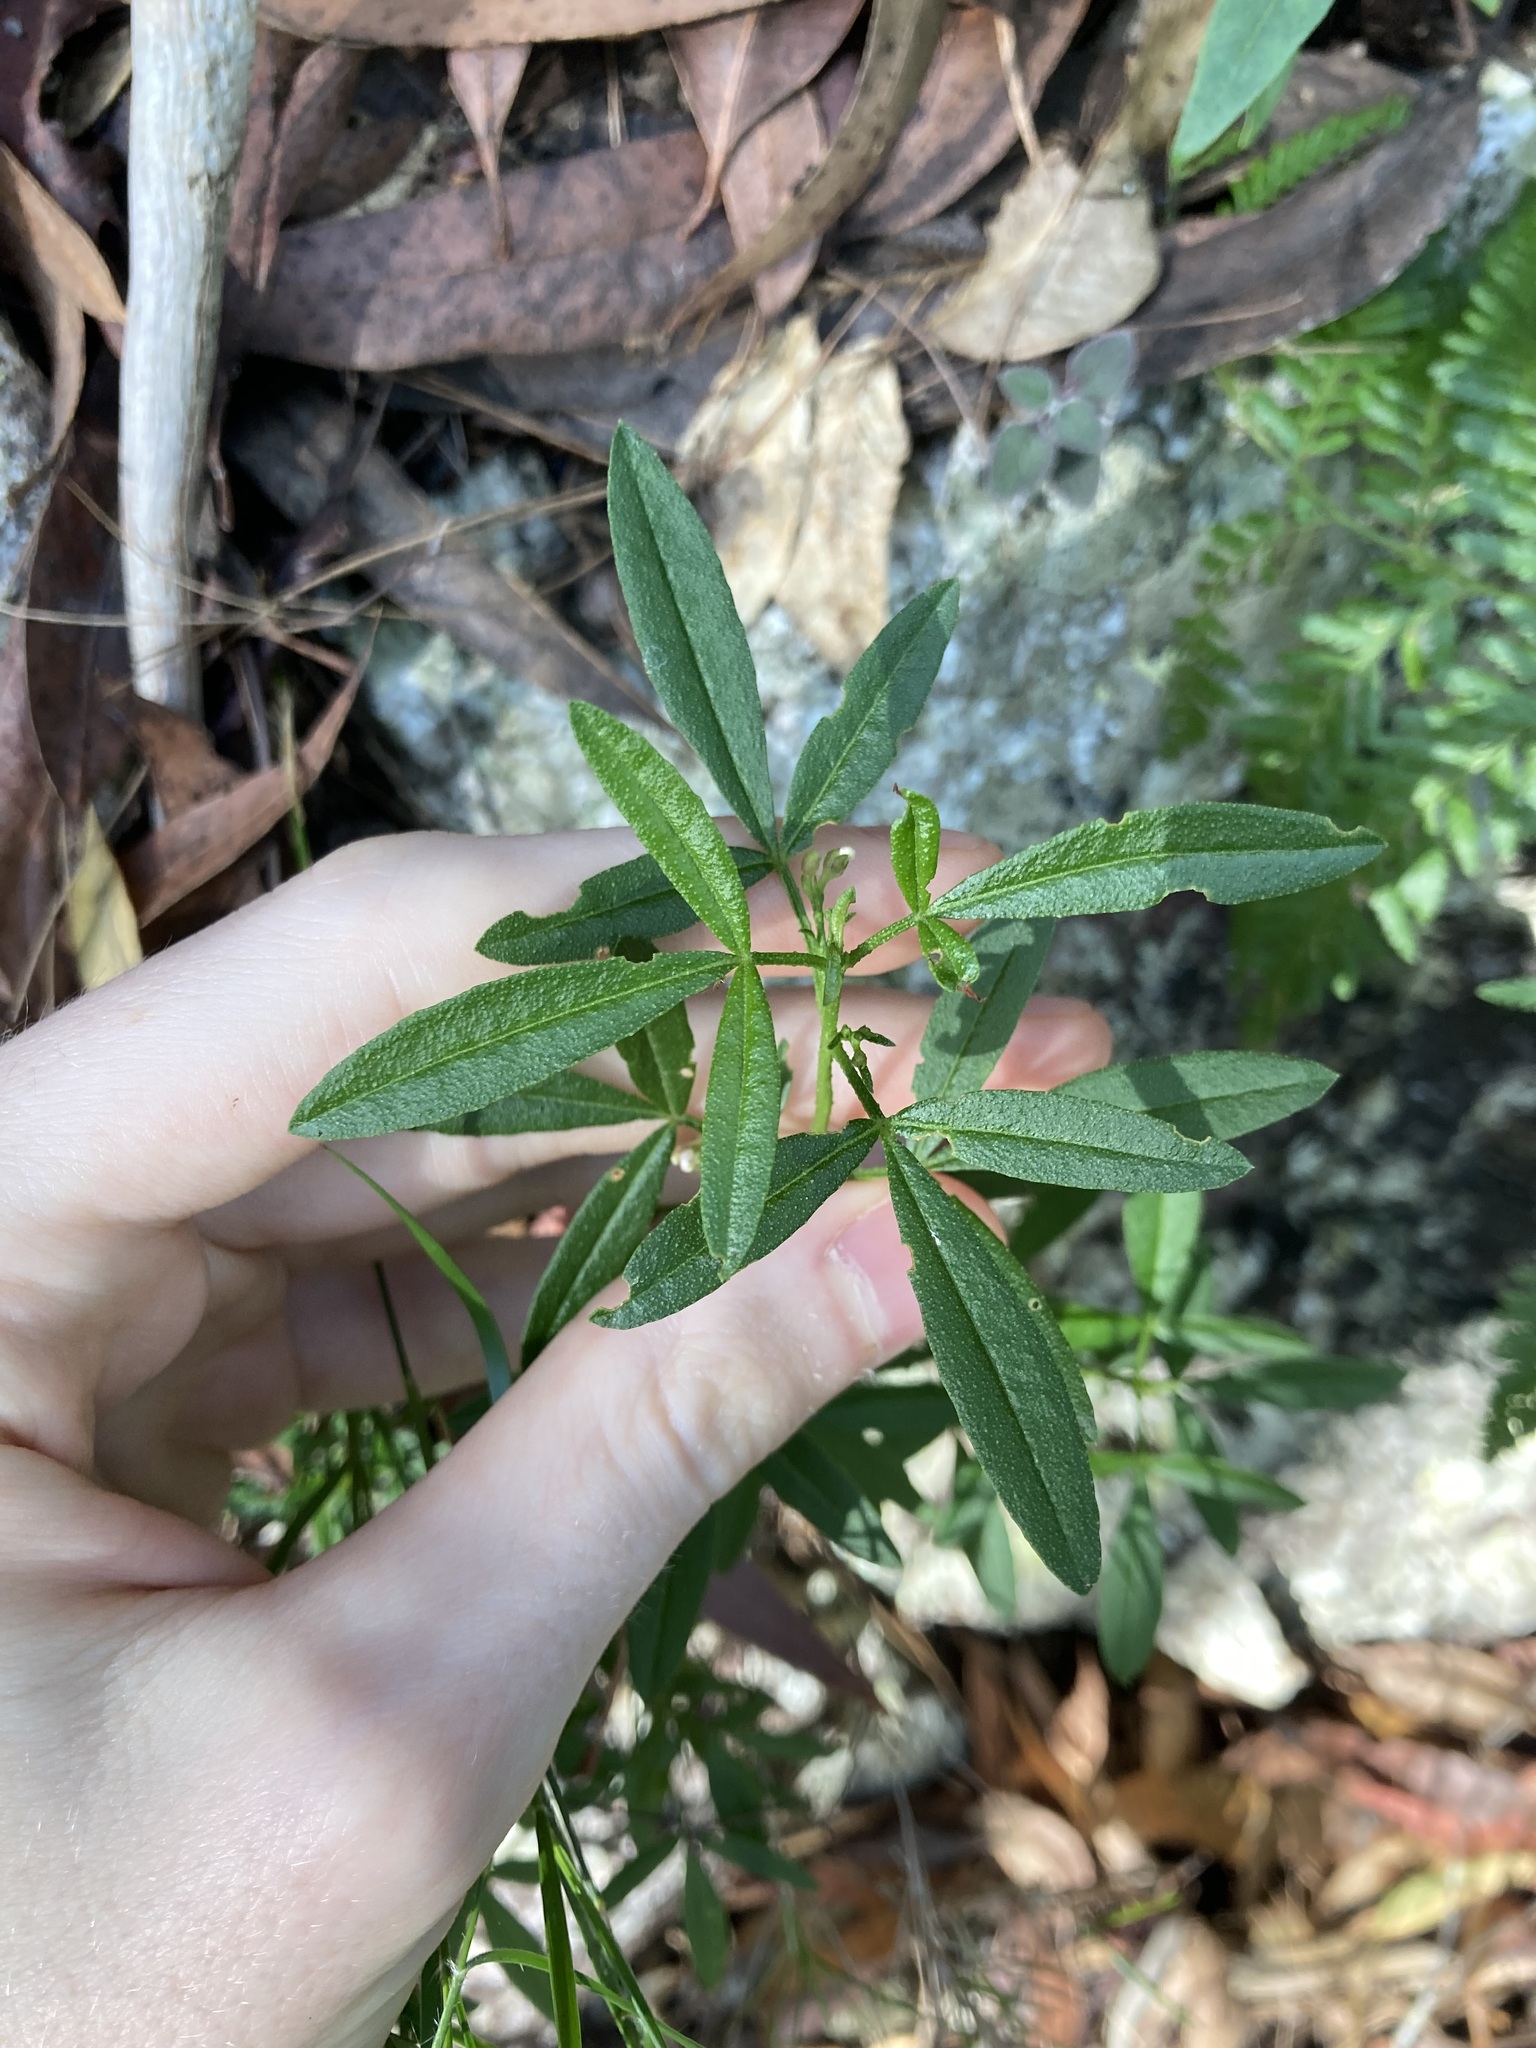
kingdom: Plantae
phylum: Tracheophyta
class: Magnoliopsida
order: Sapindales
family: Rutaceae
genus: Zieria
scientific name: Zieria smithii
